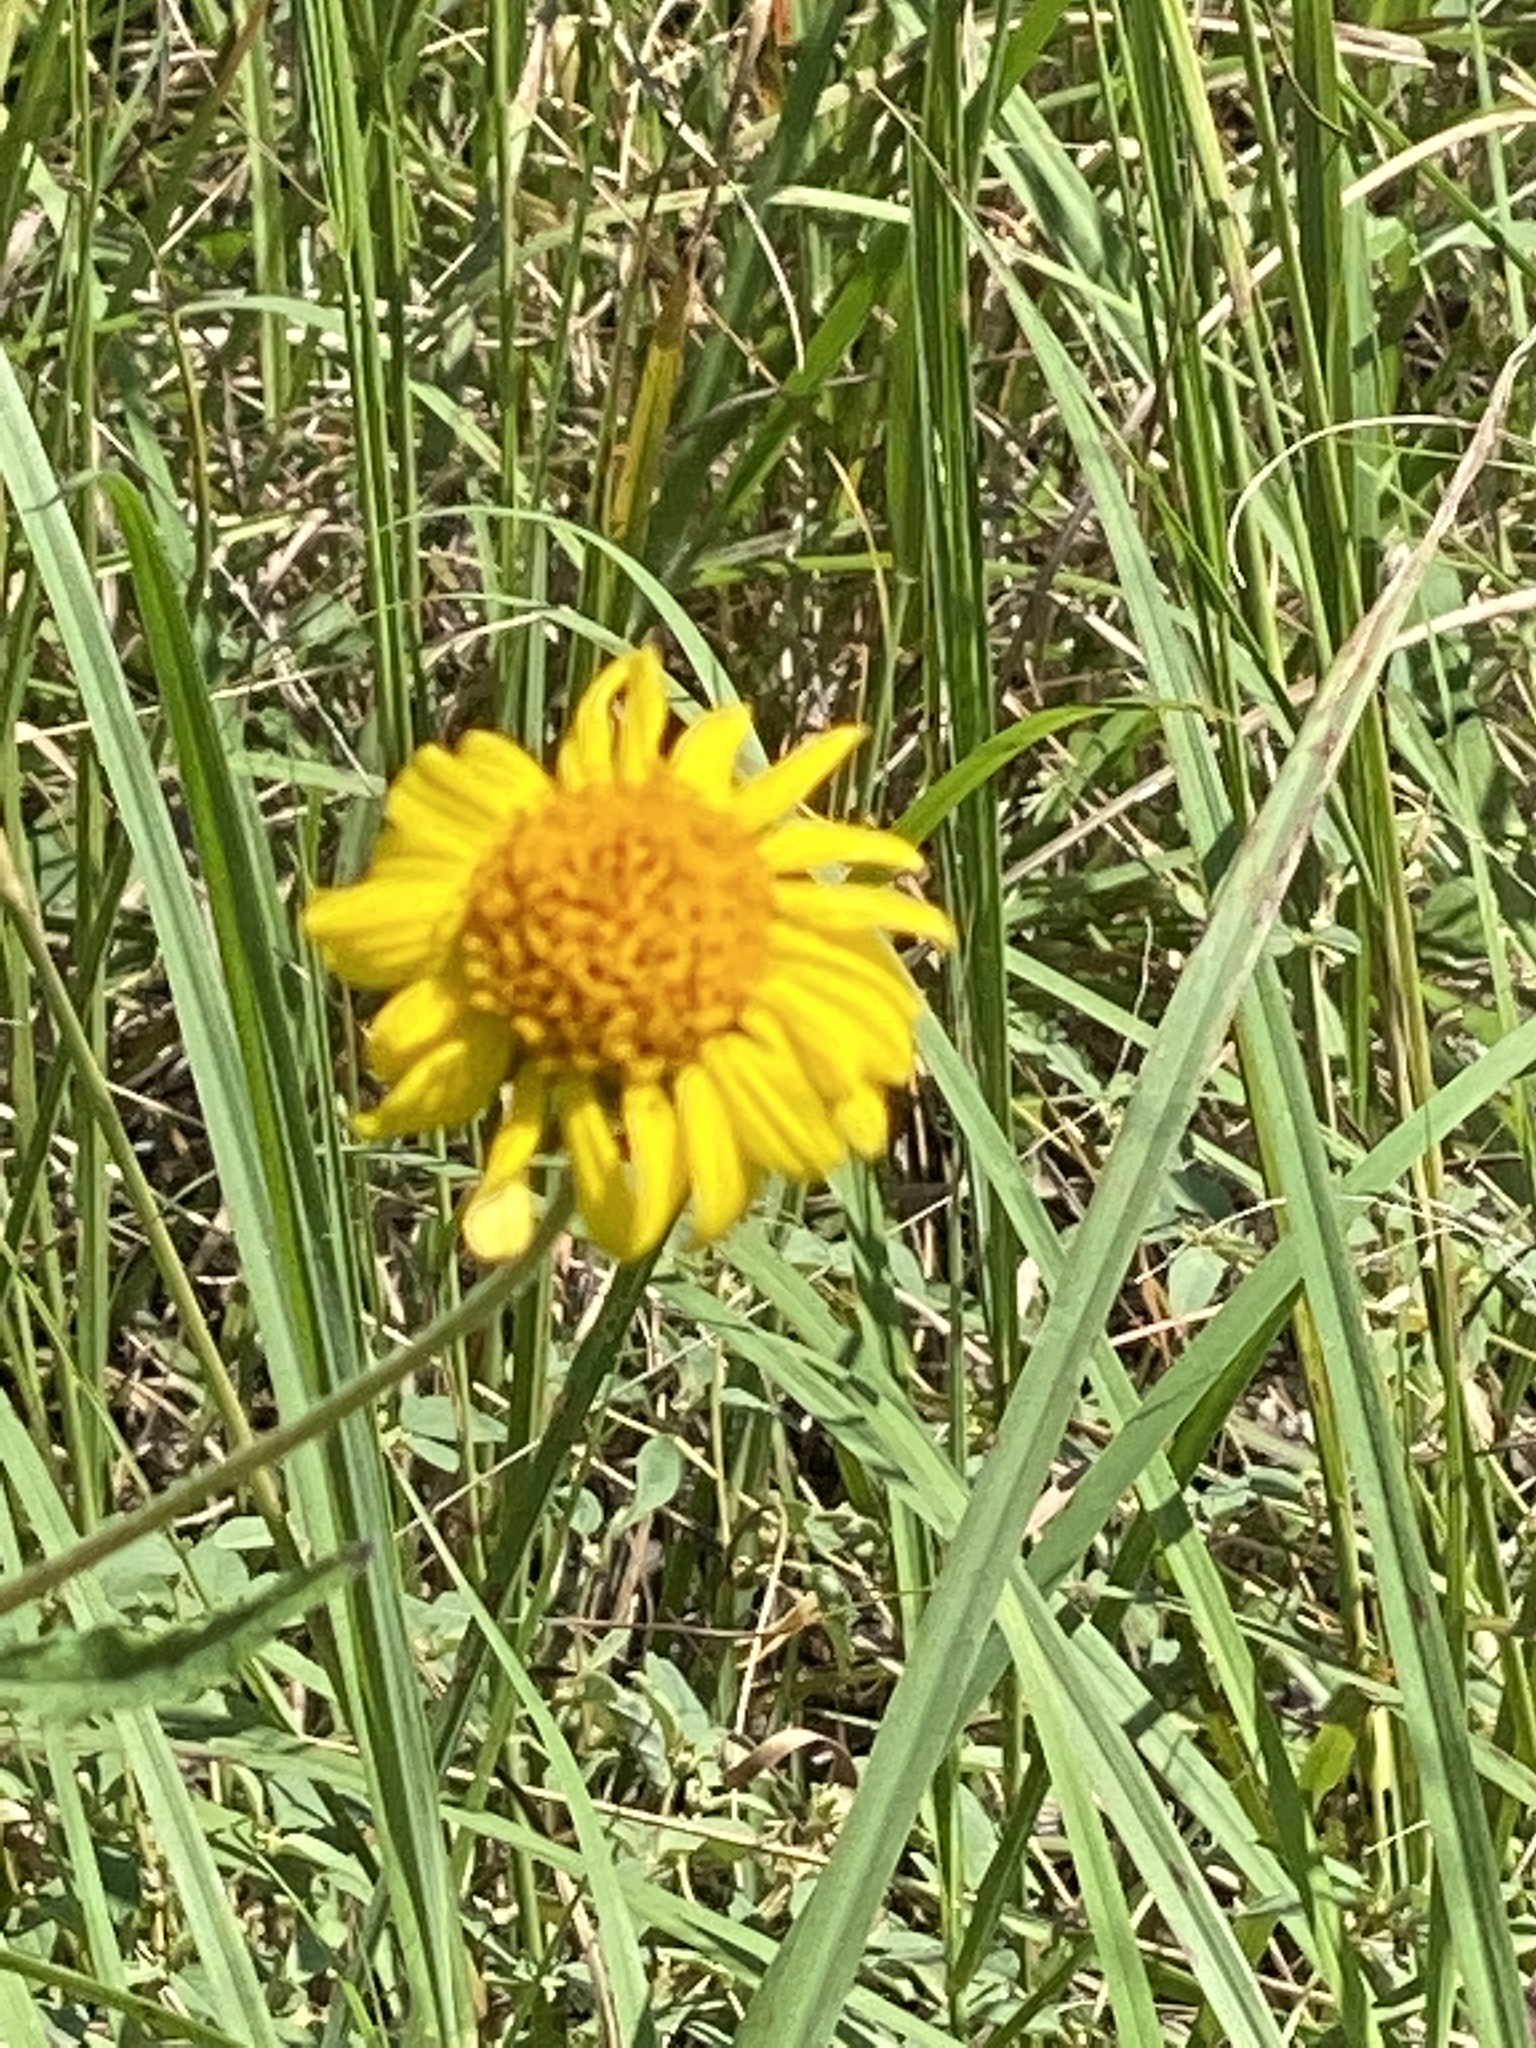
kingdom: Plantae
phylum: Tracheophyta
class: Magnoliopsida
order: Asterales
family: Asteraceae
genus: Simsia
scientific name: Simsia calva
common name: Awnless bush-sunflower
